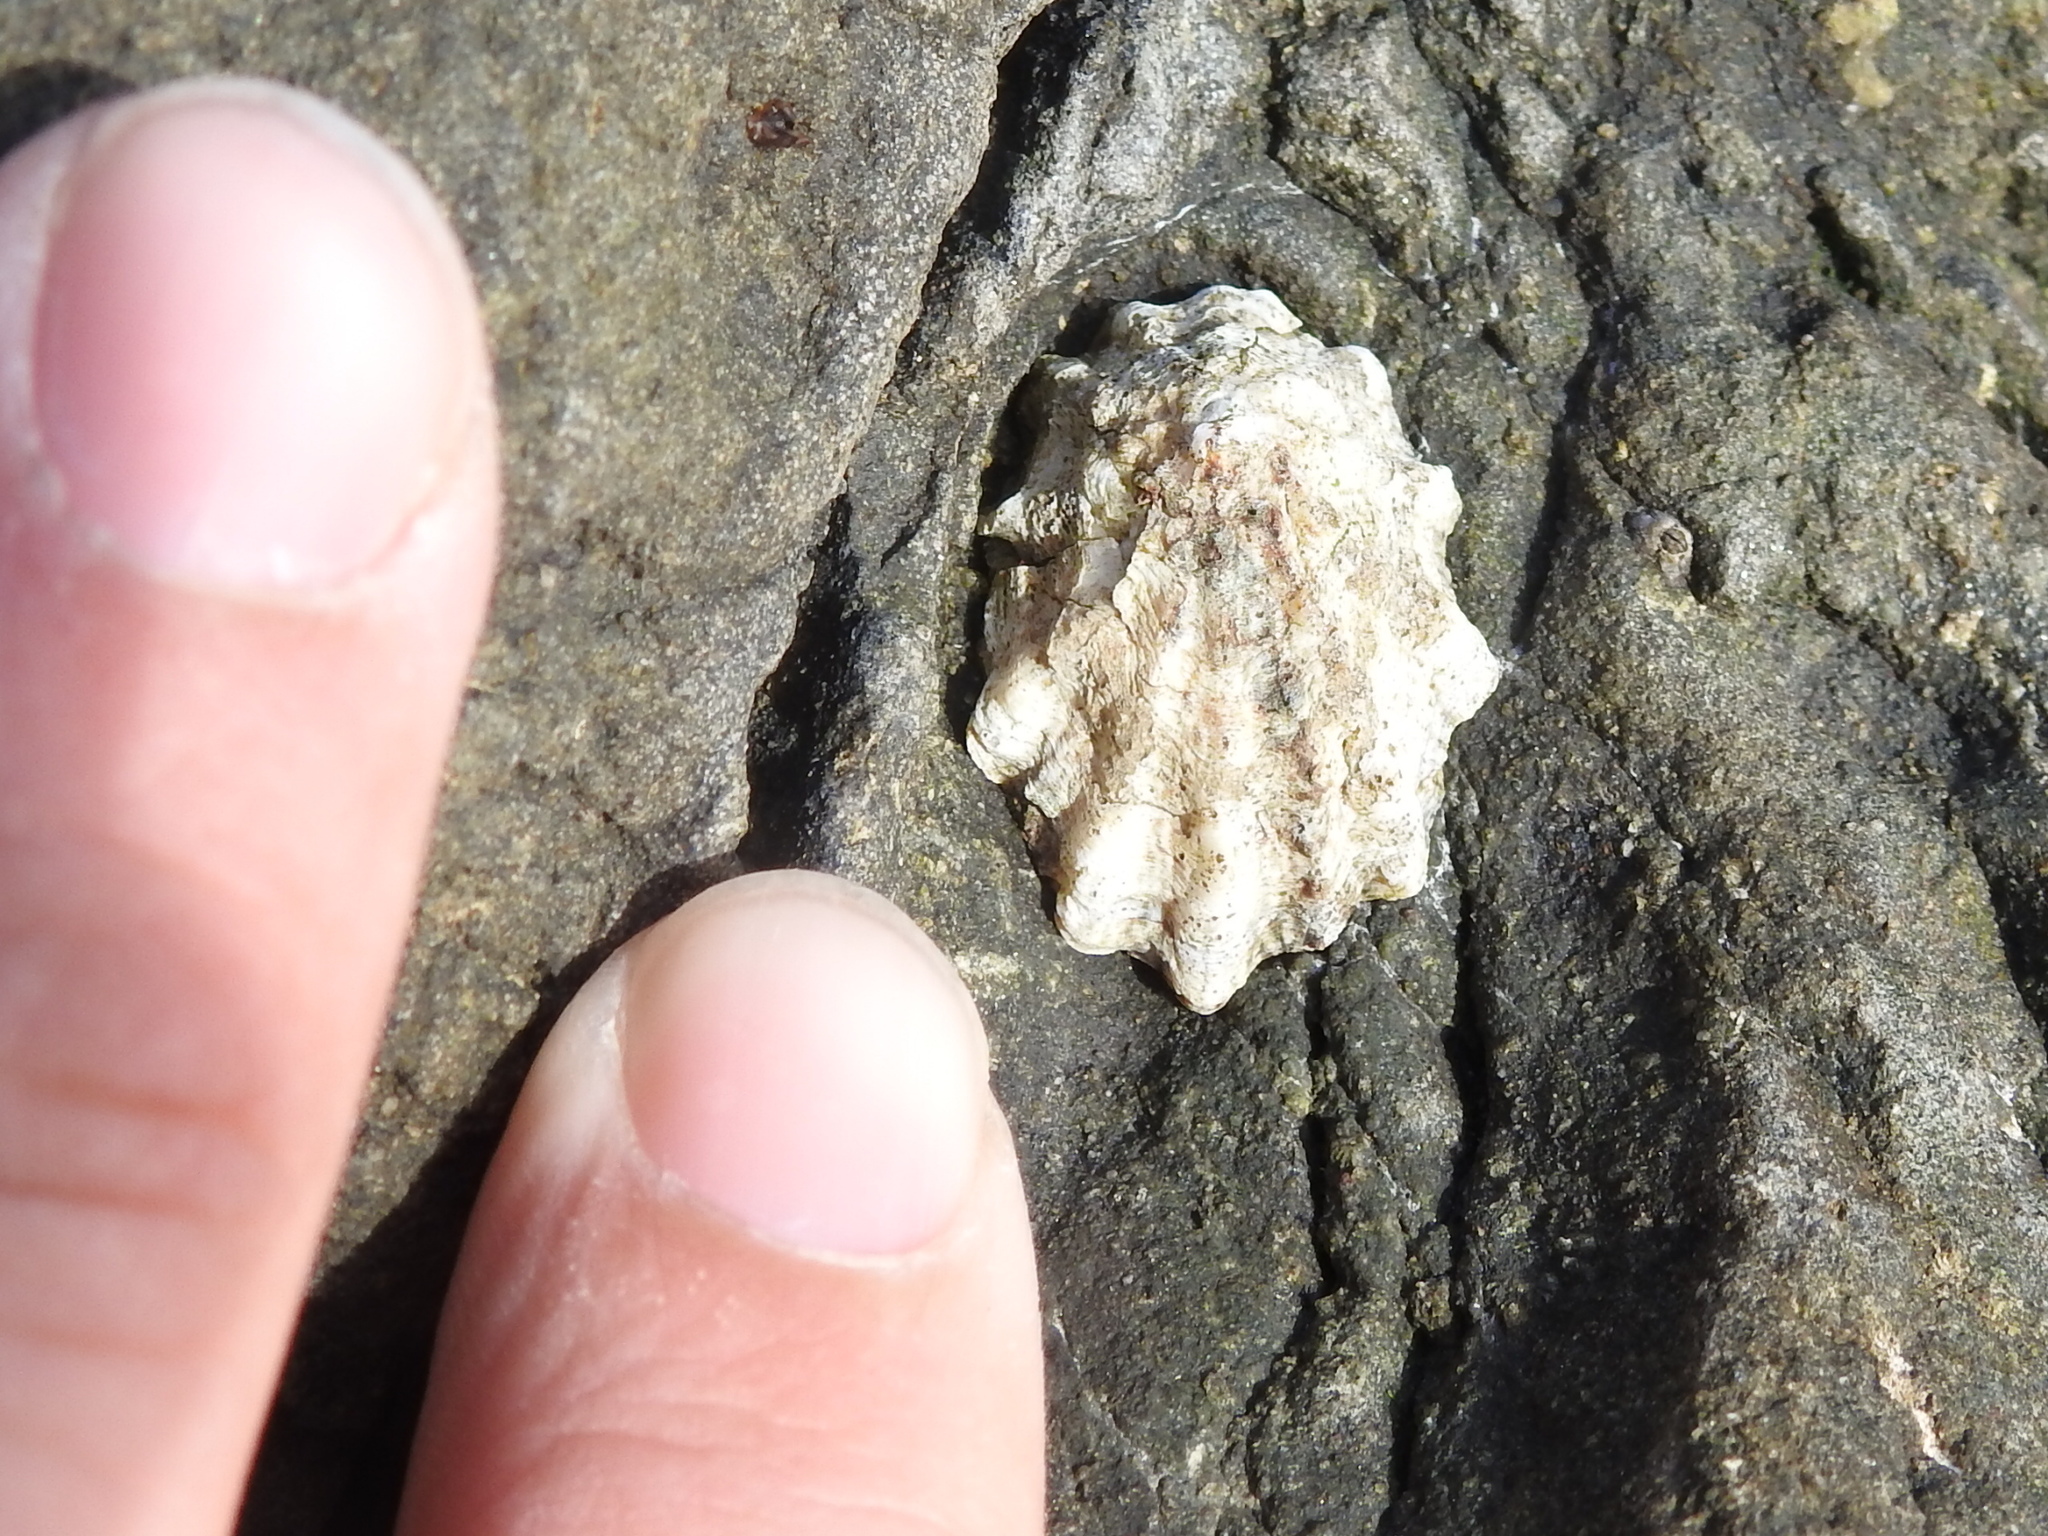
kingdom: Animalia
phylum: Mollusca
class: Gastropoda
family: Lottiidae
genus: Lottia
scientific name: Lottia scabra
